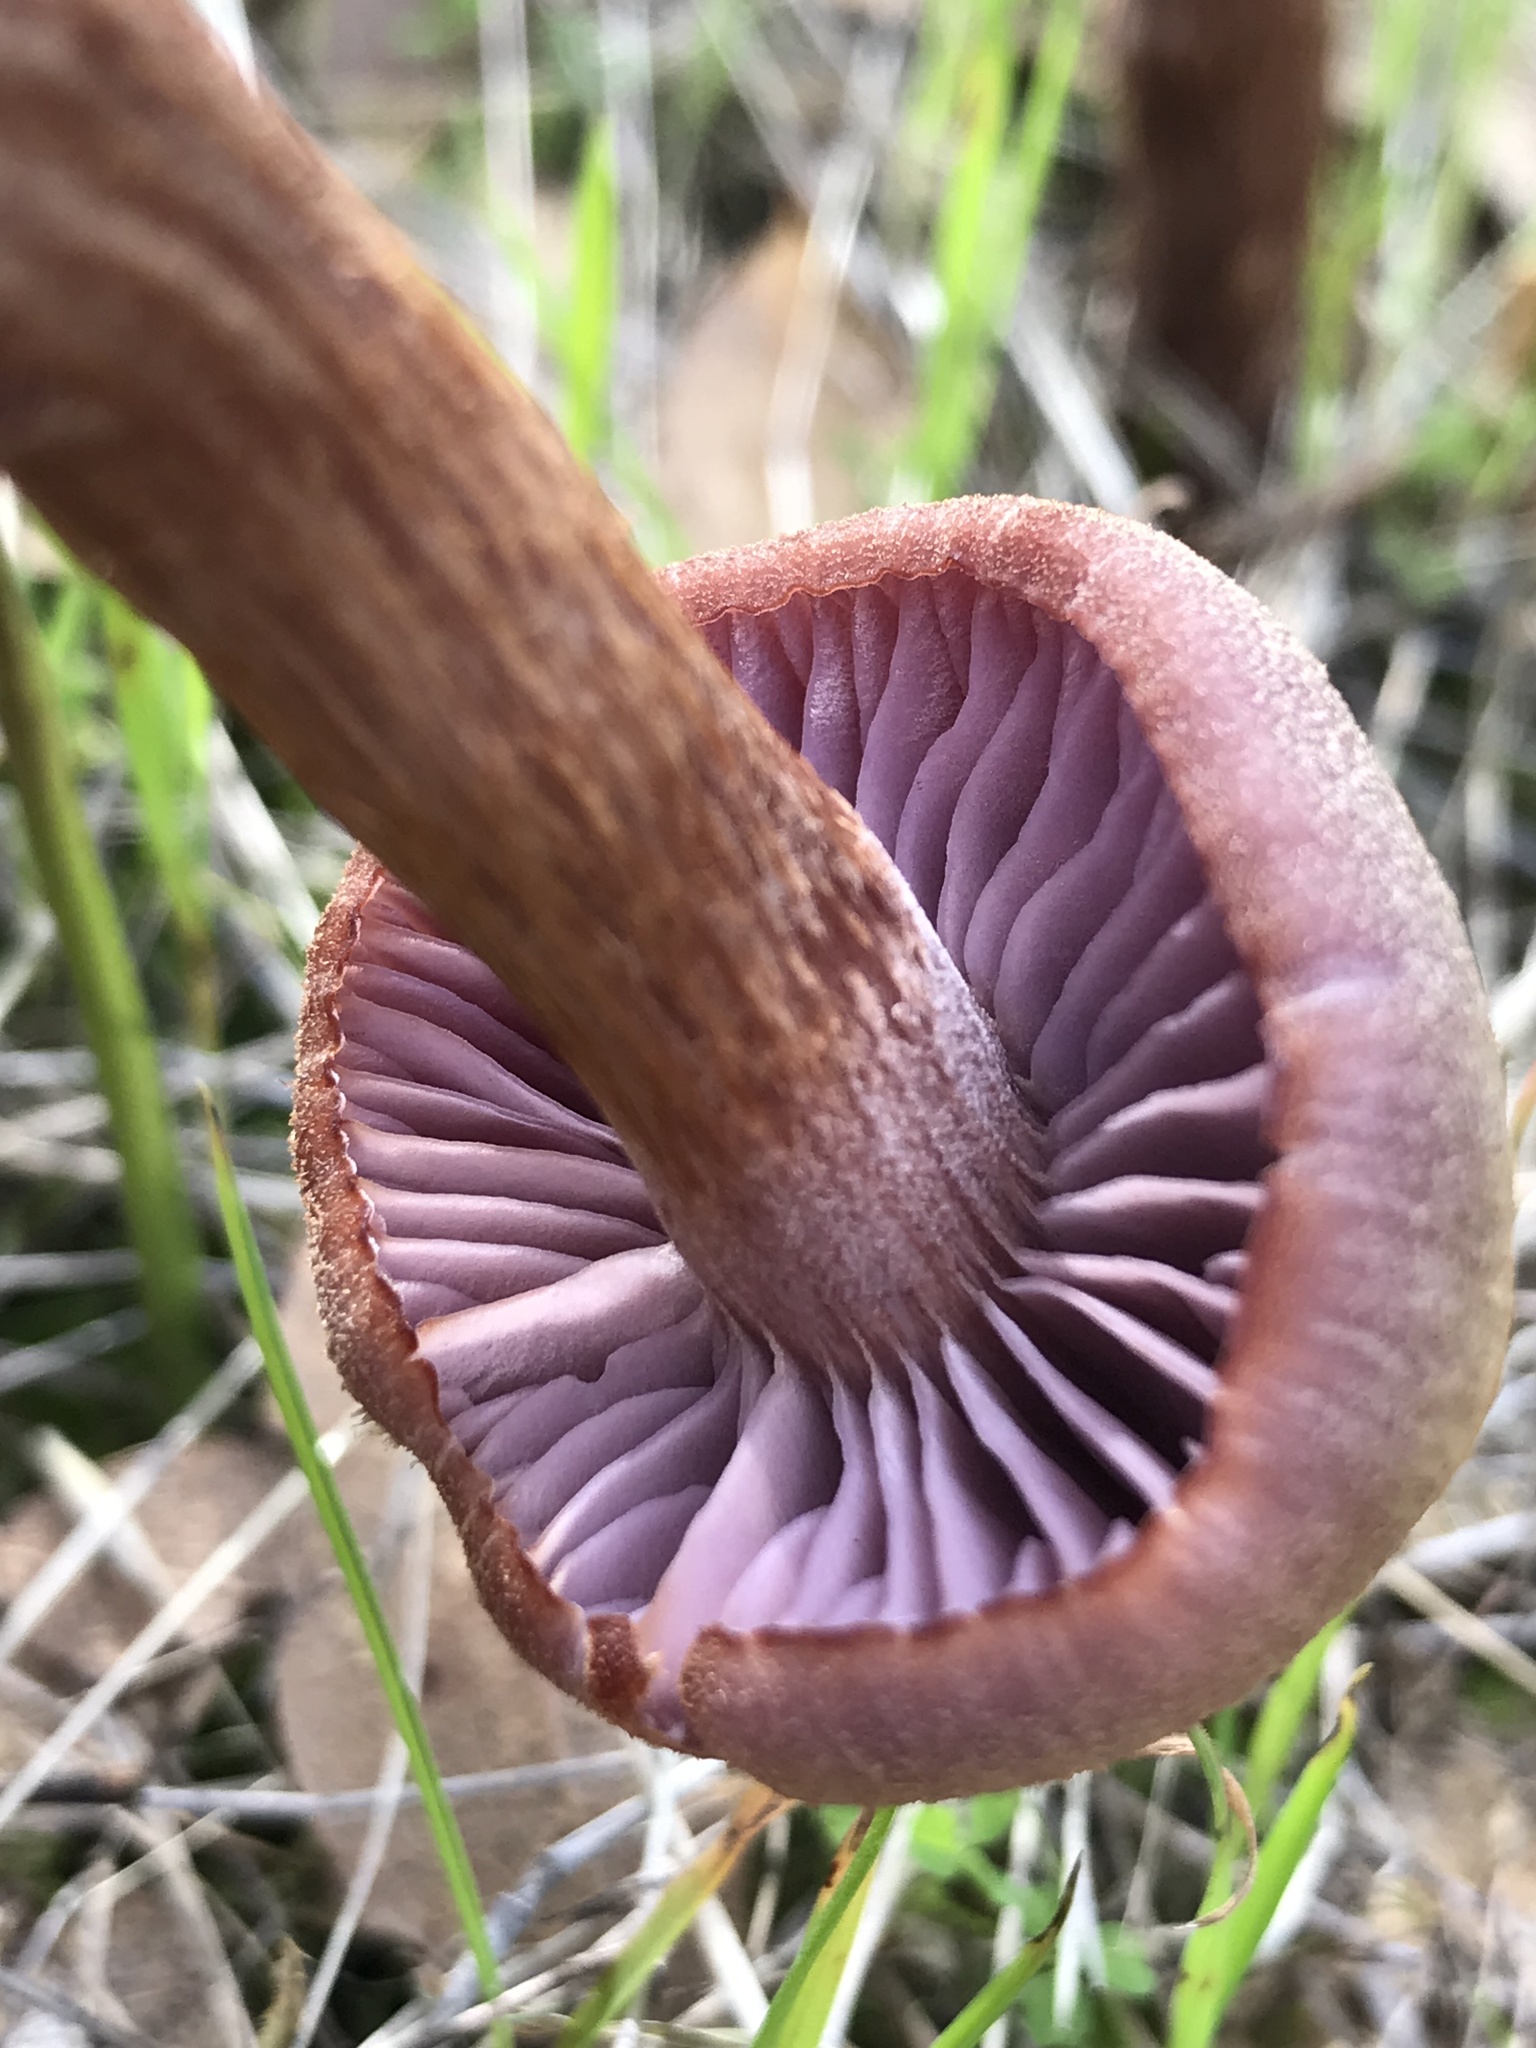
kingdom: Fungi
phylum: Basidiomycota
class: Agaricomycetes
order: Agaricales
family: Hydnangiaceae
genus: Laccaria
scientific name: Laccaria amethysteo-occidentalis
